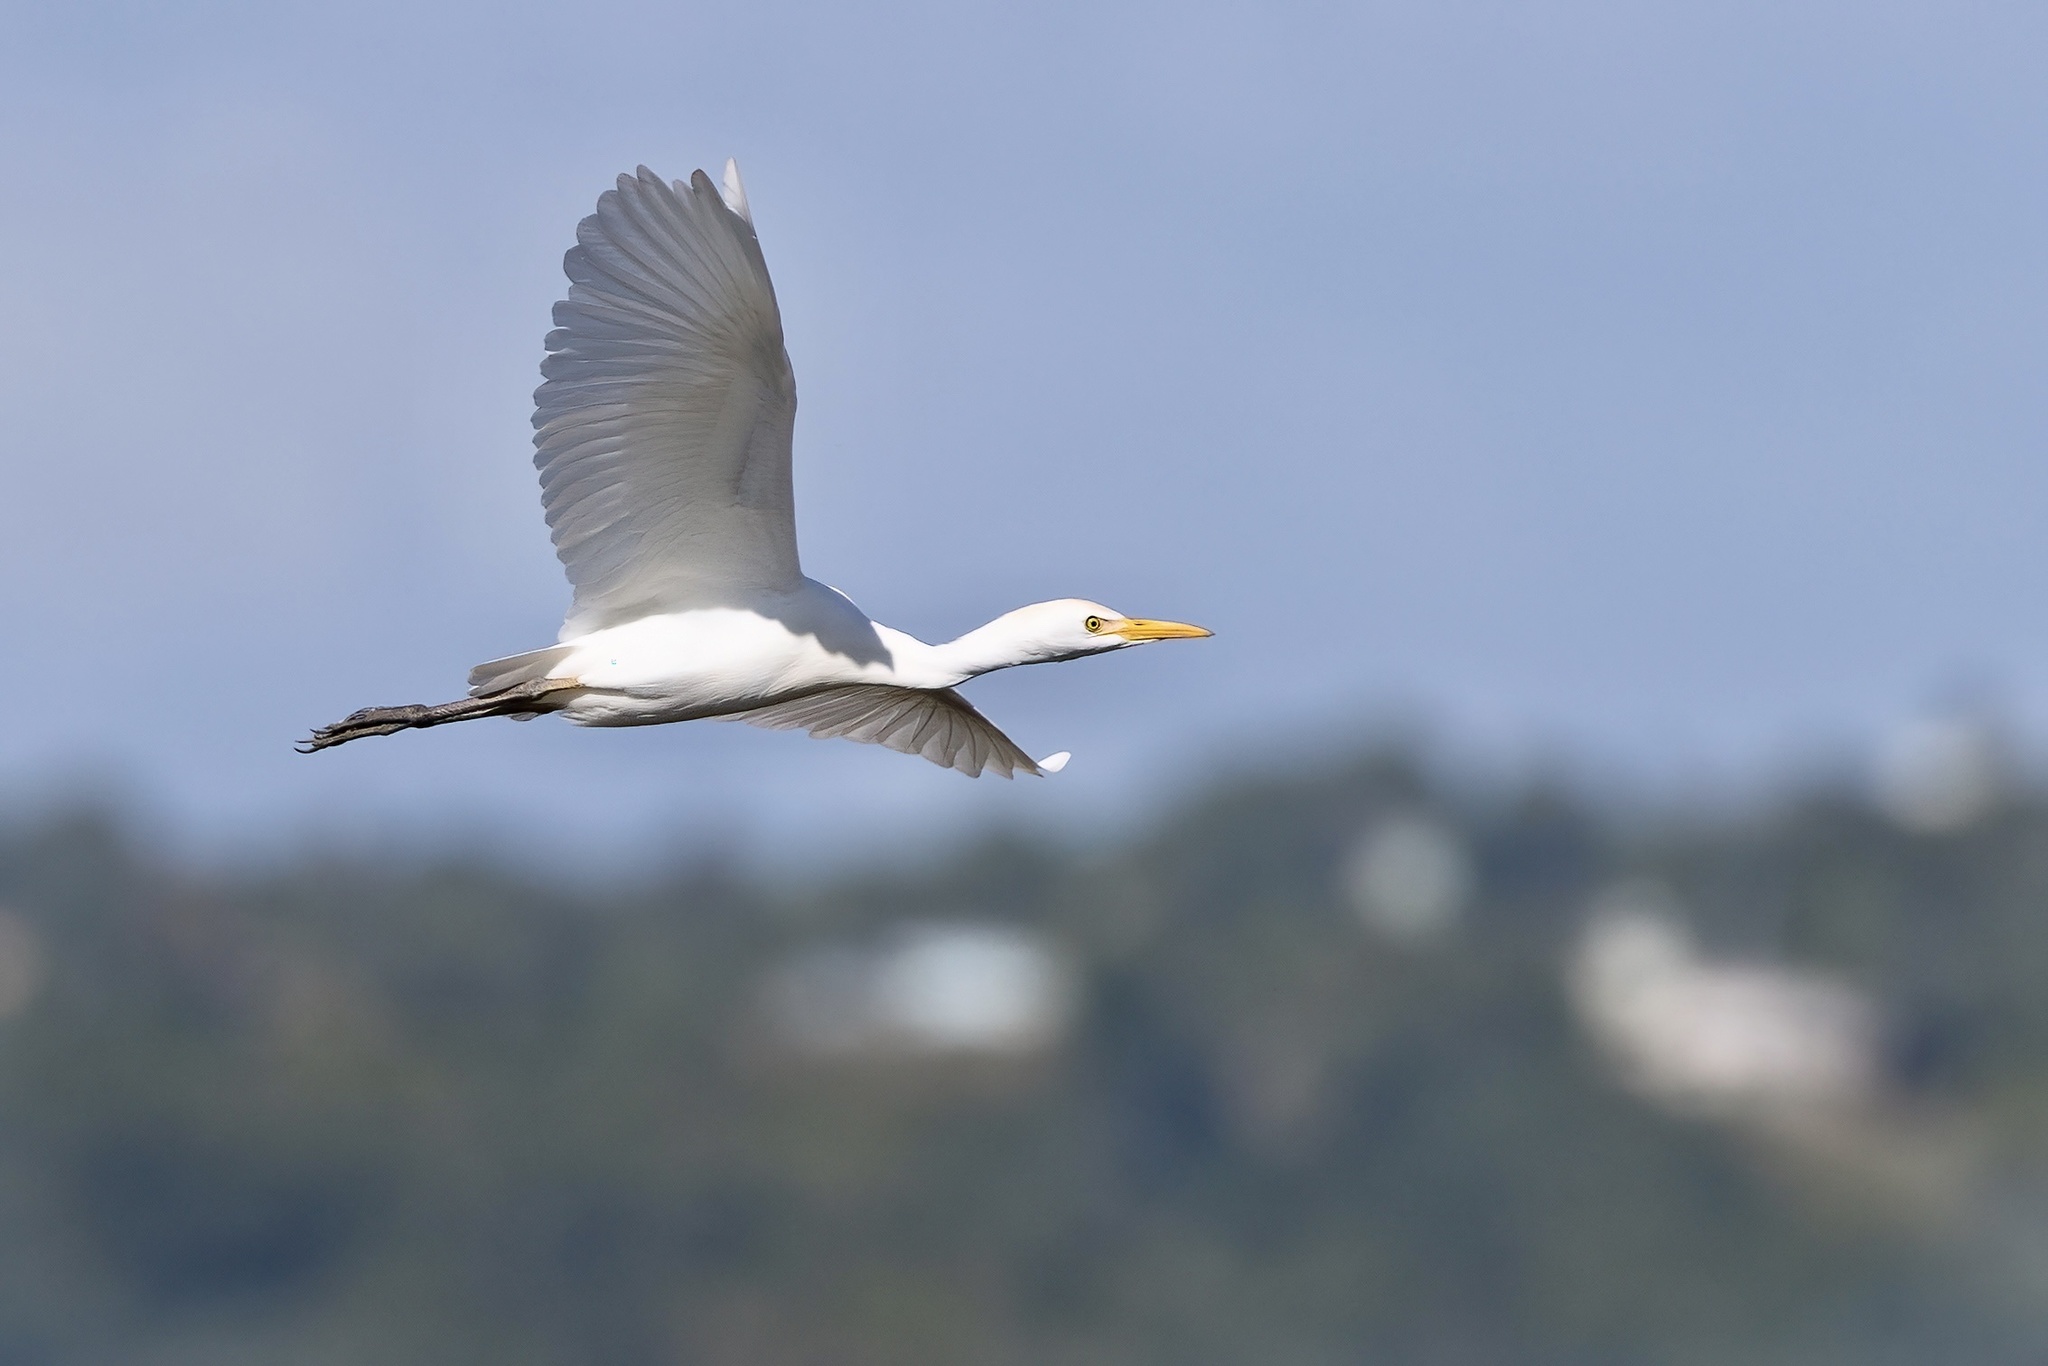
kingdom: Animalia
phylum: Chordata
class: Aves
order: Pelecaniformes
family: Ardeidae
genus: Bubulcus
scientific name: Bubulcus ibis
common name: Cattle egret
